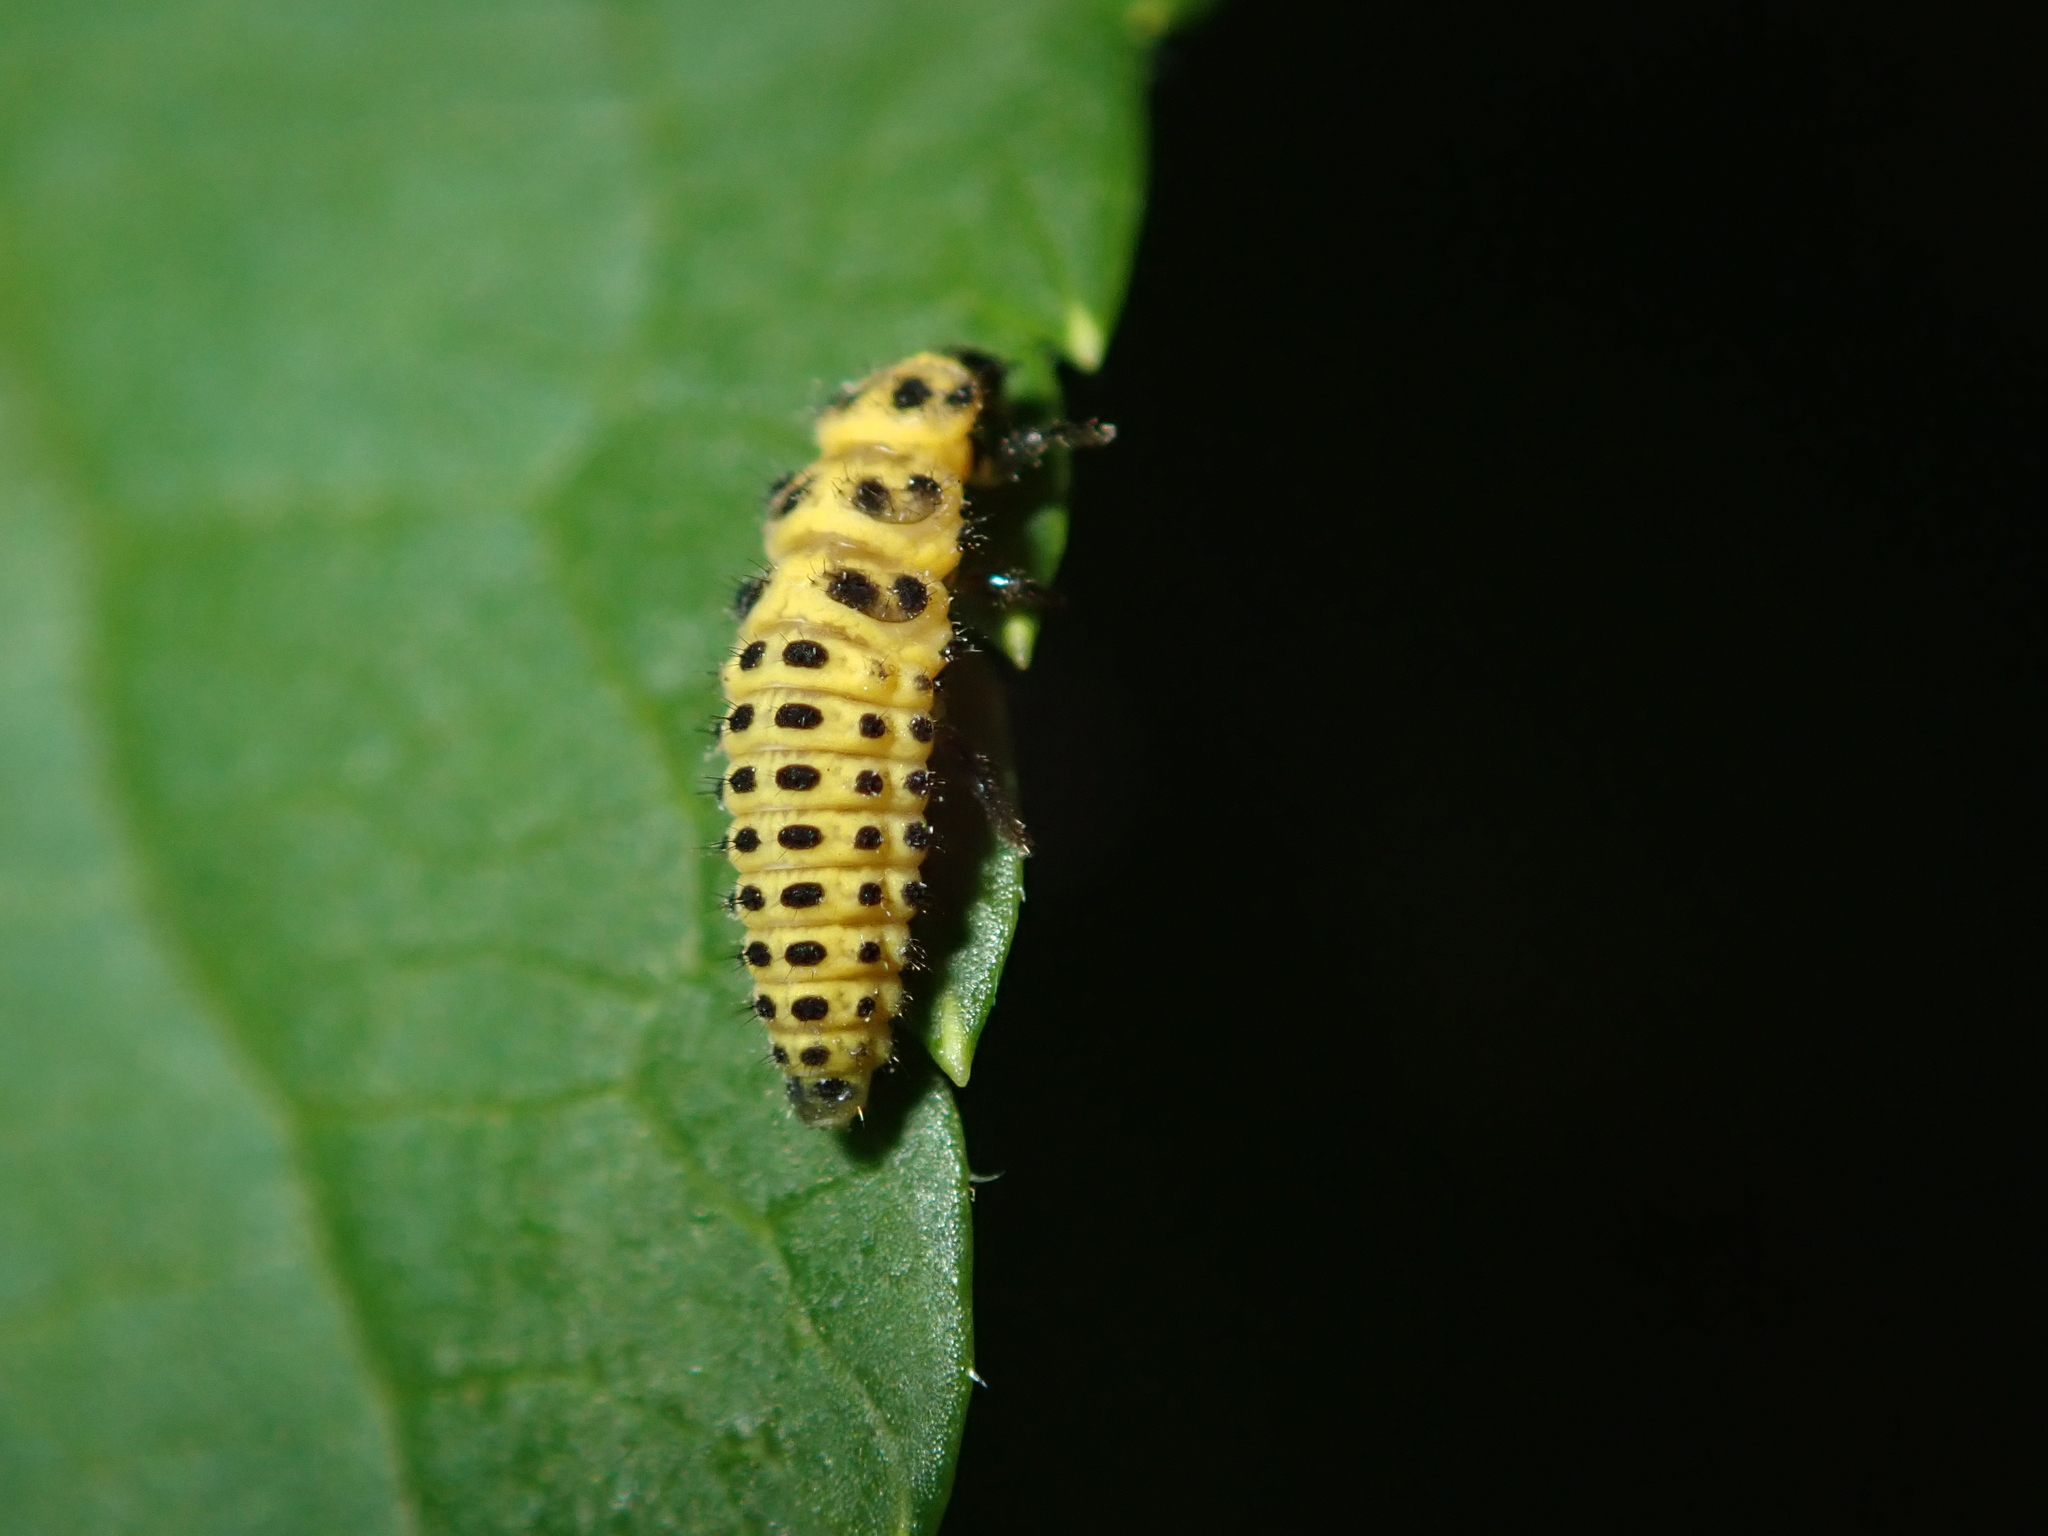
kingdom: Animalia
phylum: Arthropoda
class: Insecta
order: Coleoptera
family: Coccinellidae
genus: Psyllobora
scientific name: Psyllobora vigintiduopunctata
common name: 22-spot ladybird
